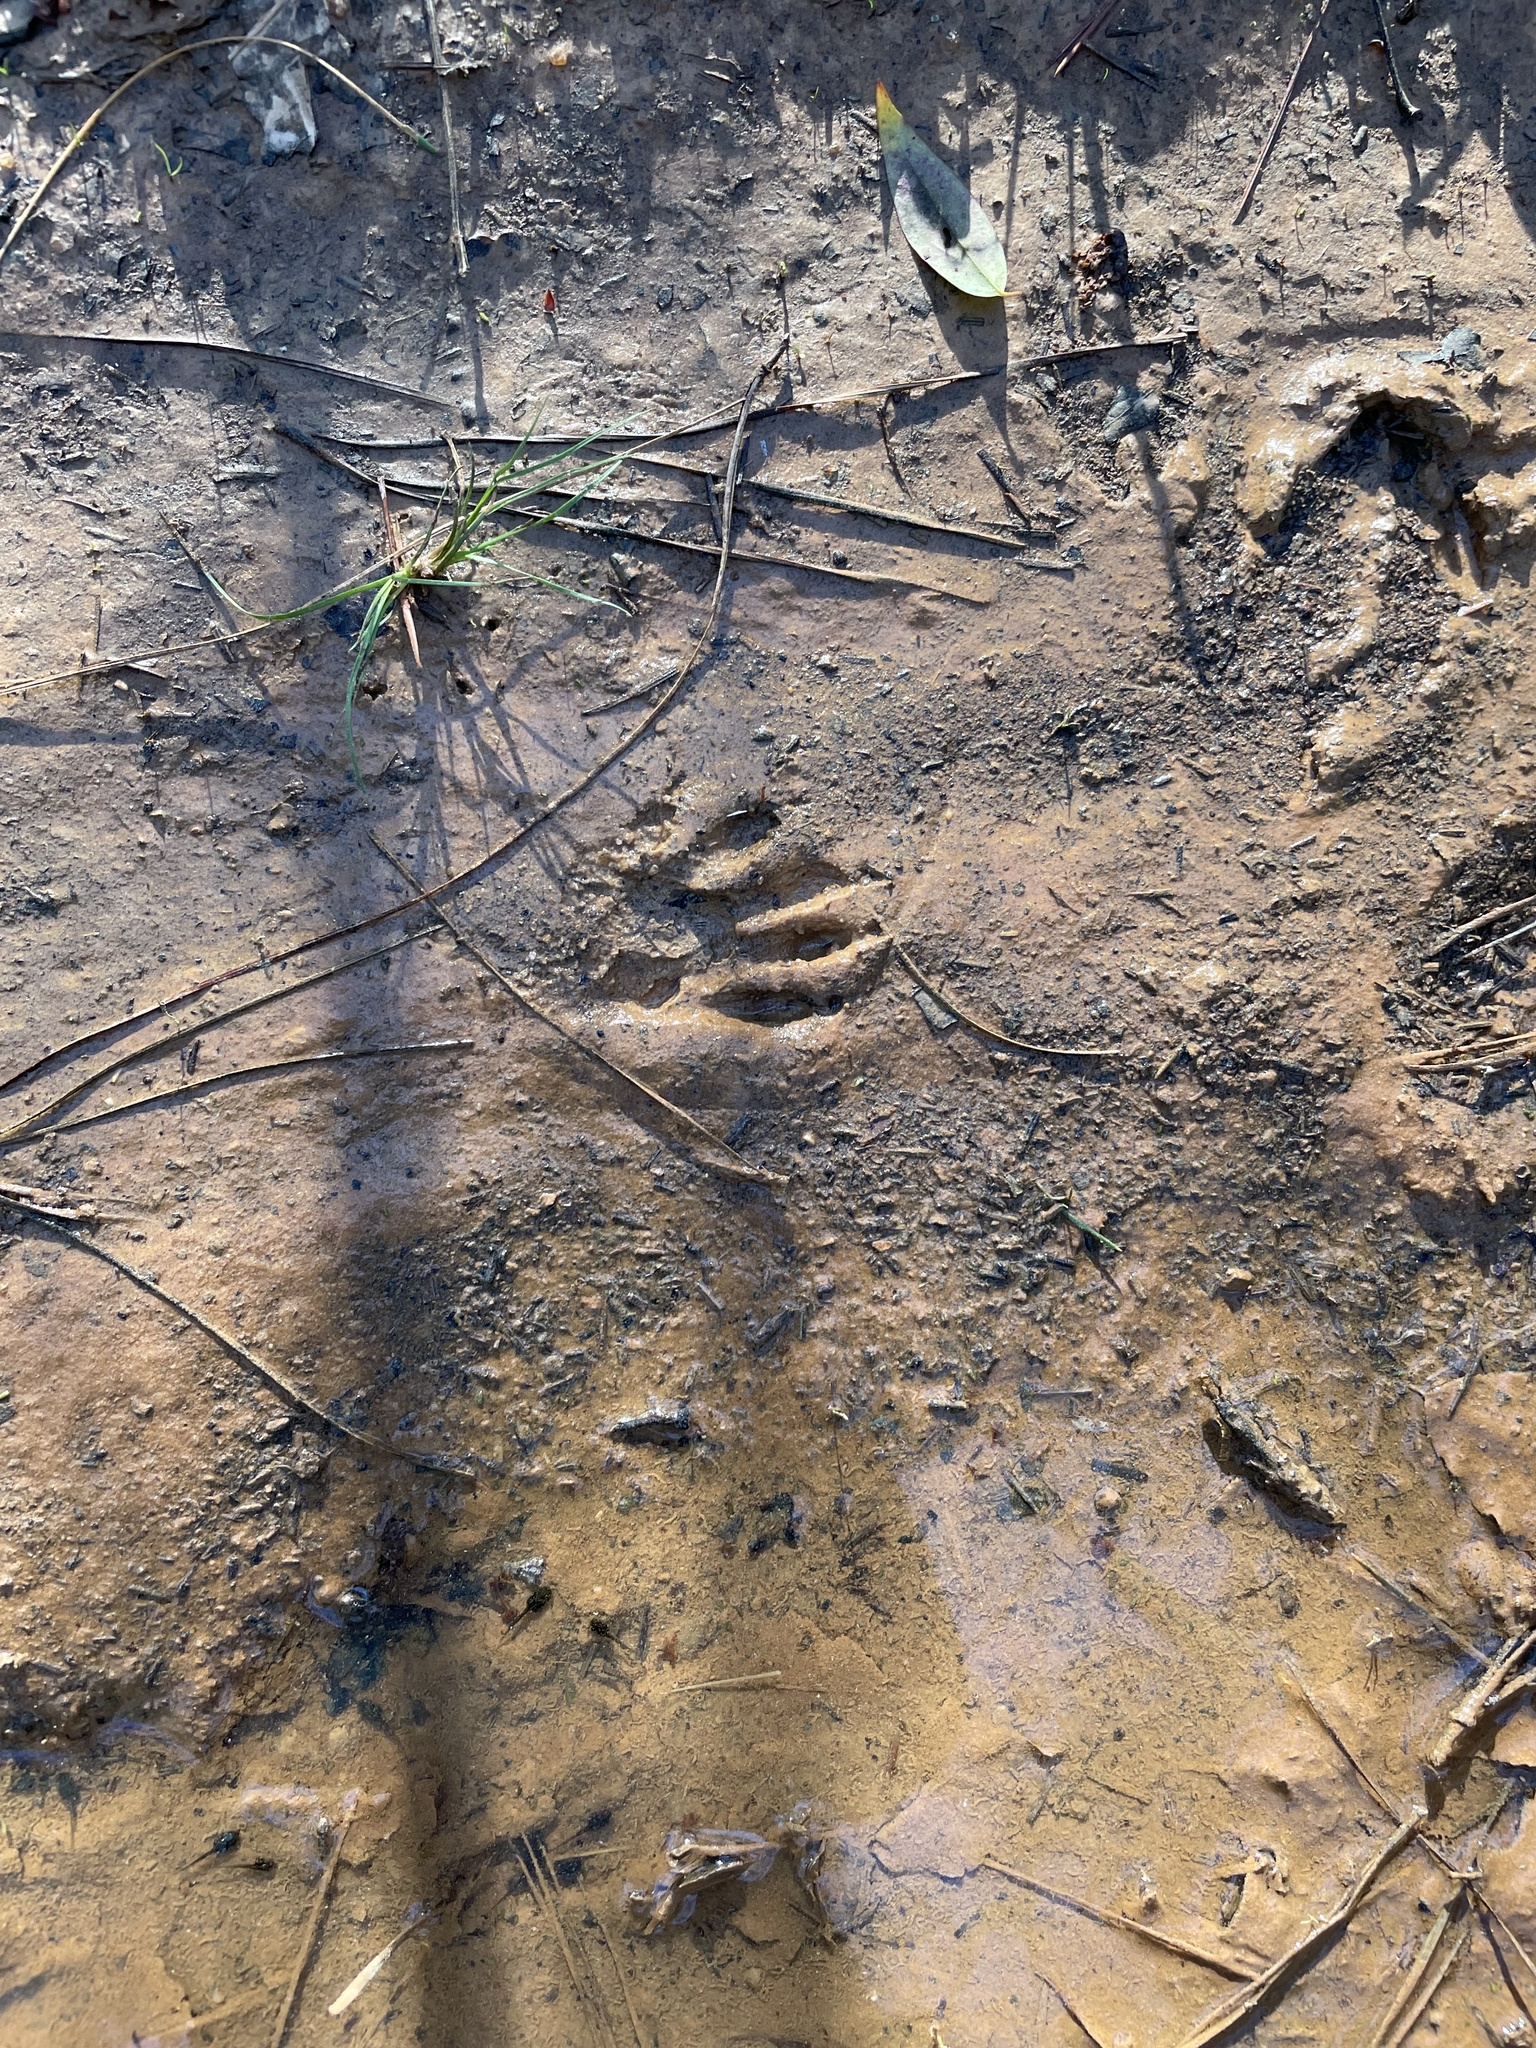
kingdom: Animalia
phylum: Chordata
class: Mammalia
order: Carnivora
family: Procyonidae
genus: Procyon
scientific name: Procyon lotor
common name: Raccoon
